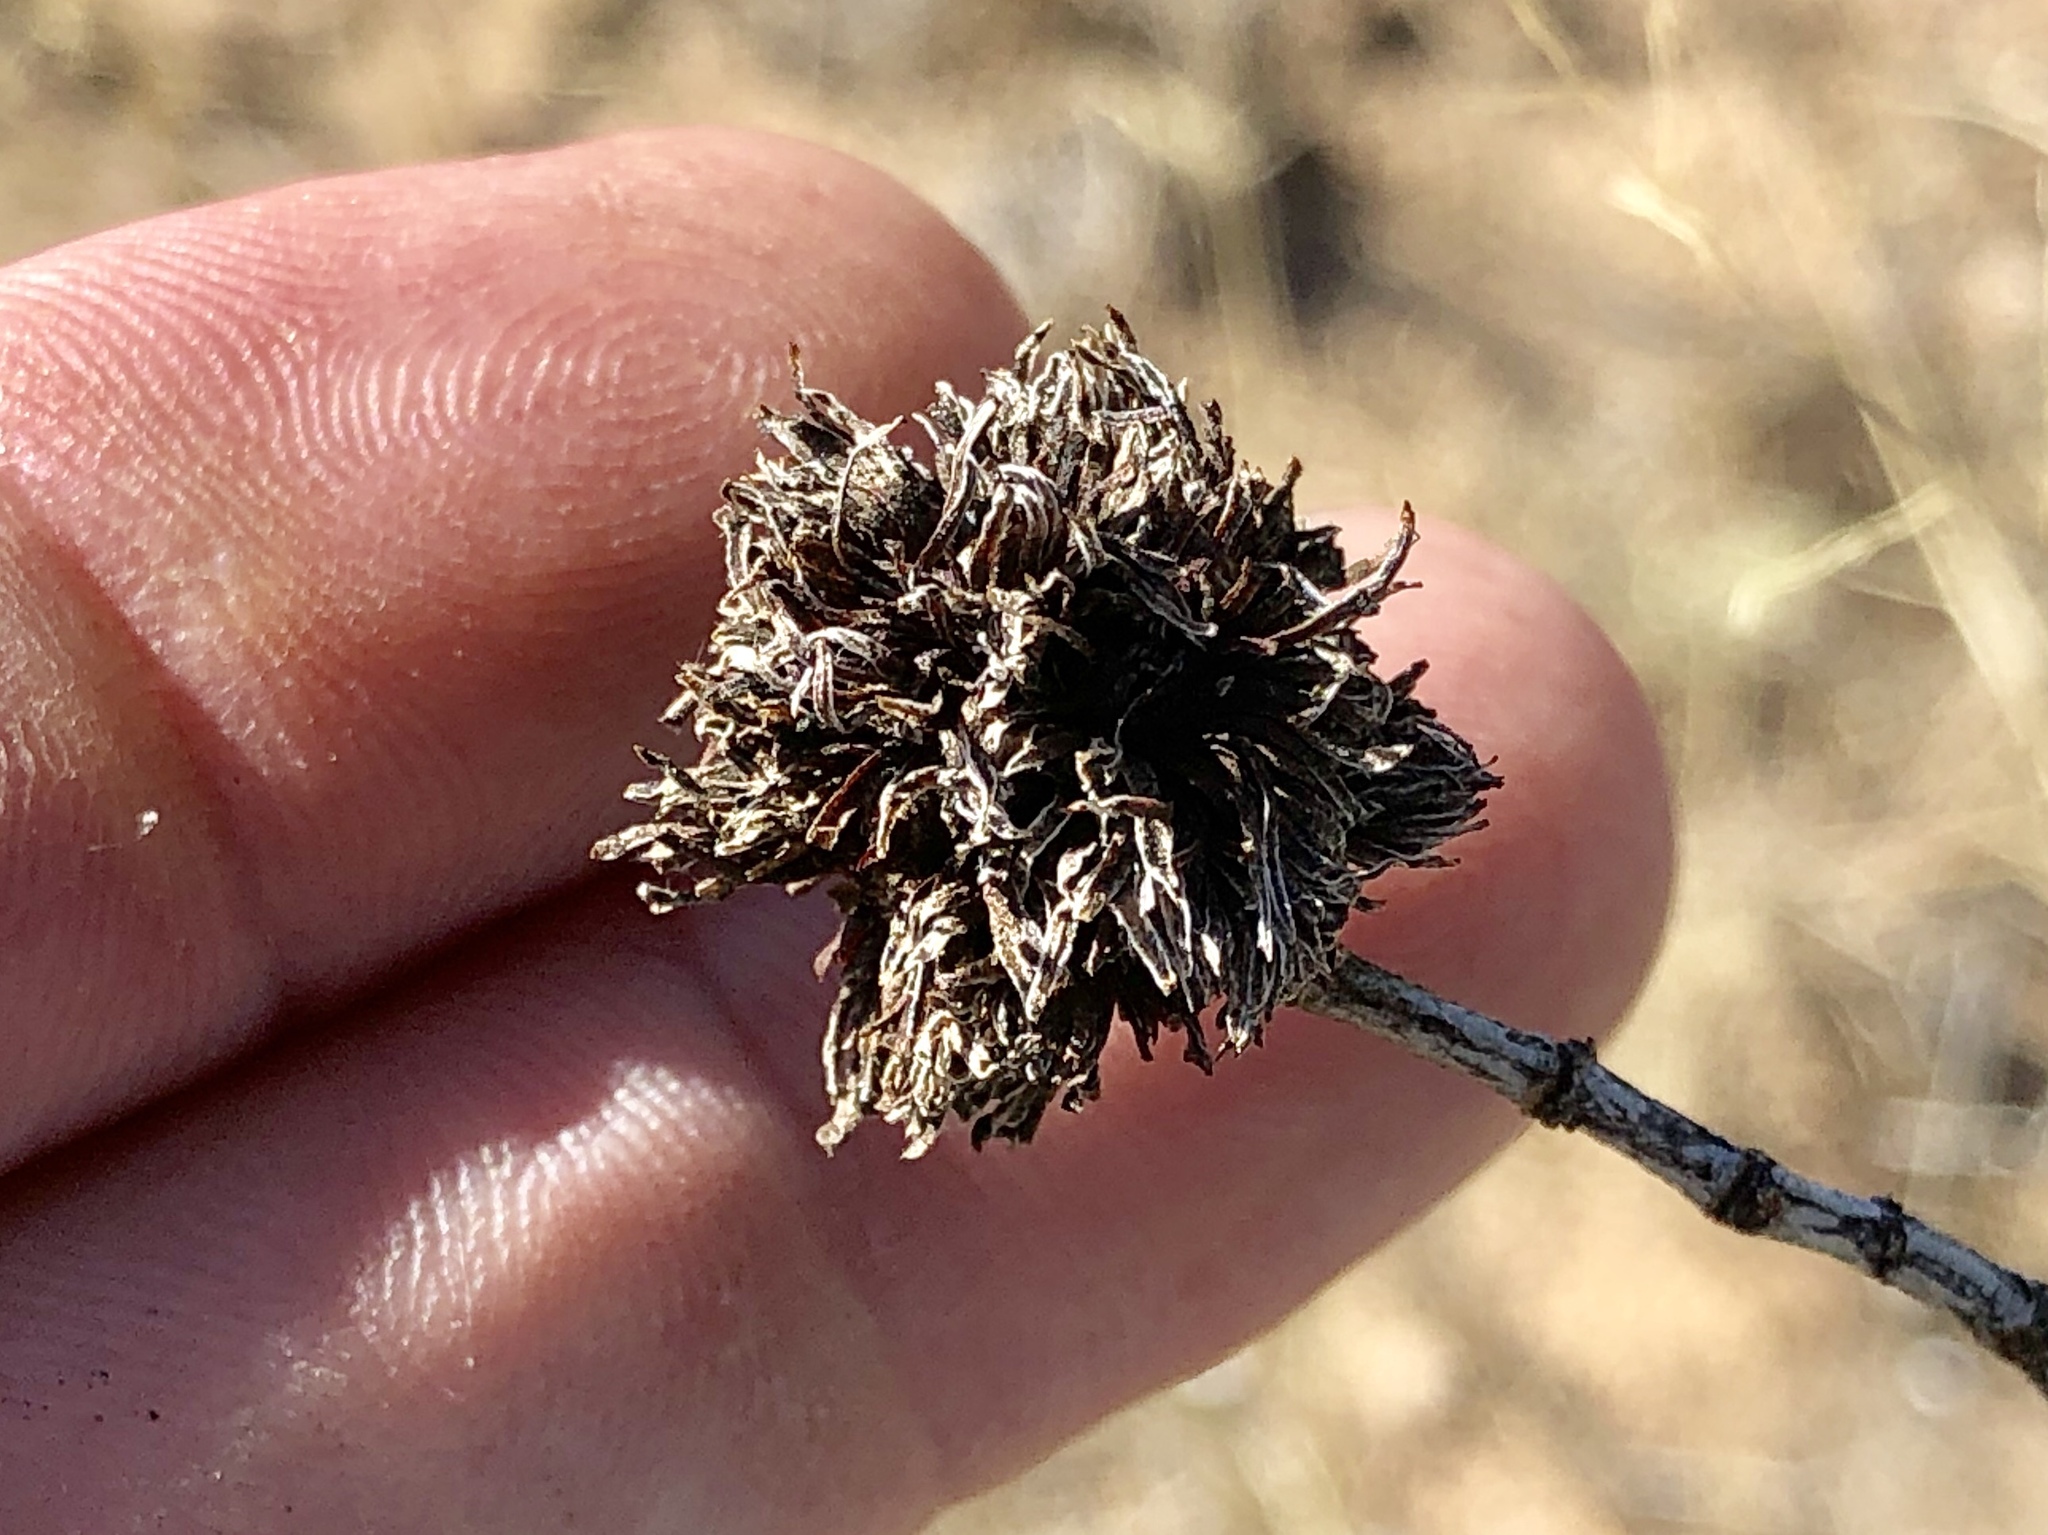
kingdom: Animalia
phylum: Arthropoda
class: Insecta
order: Diptera
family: Cecidomyiidae
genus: Asphondylia
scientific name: Asphondylia auripila
